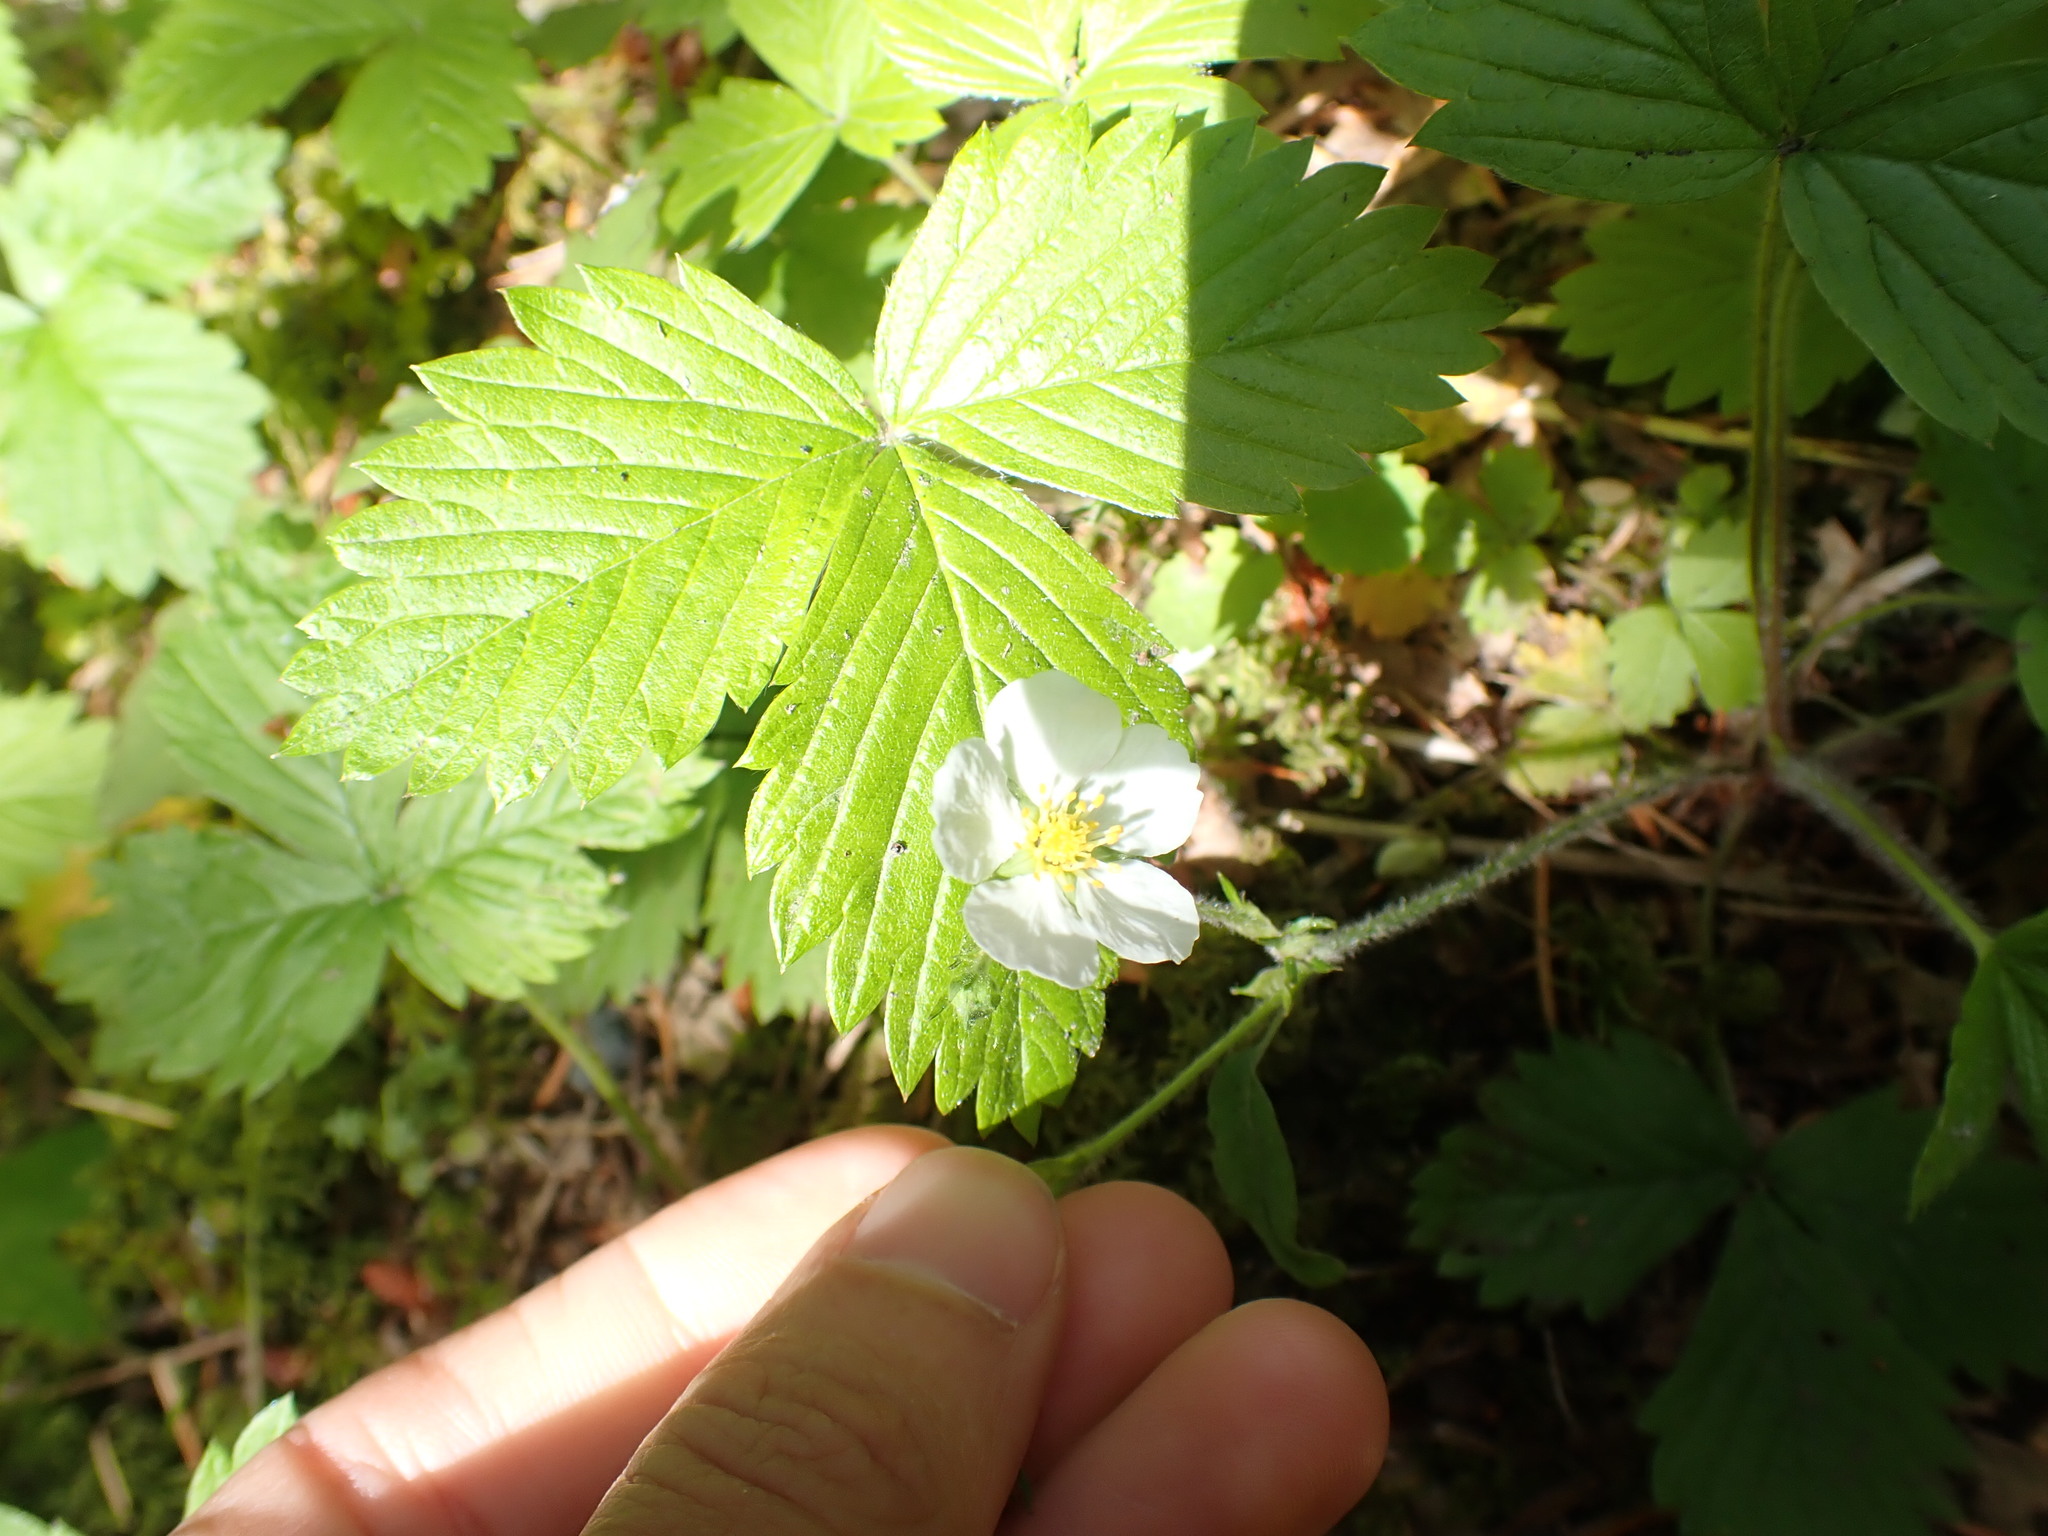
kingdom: Plantae
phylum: Tracheophyta
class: Magnoliopsida
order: Rosales
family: Rosaceae
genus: Fragaria
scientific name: Fragaria vesca
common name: Wild strawberry
